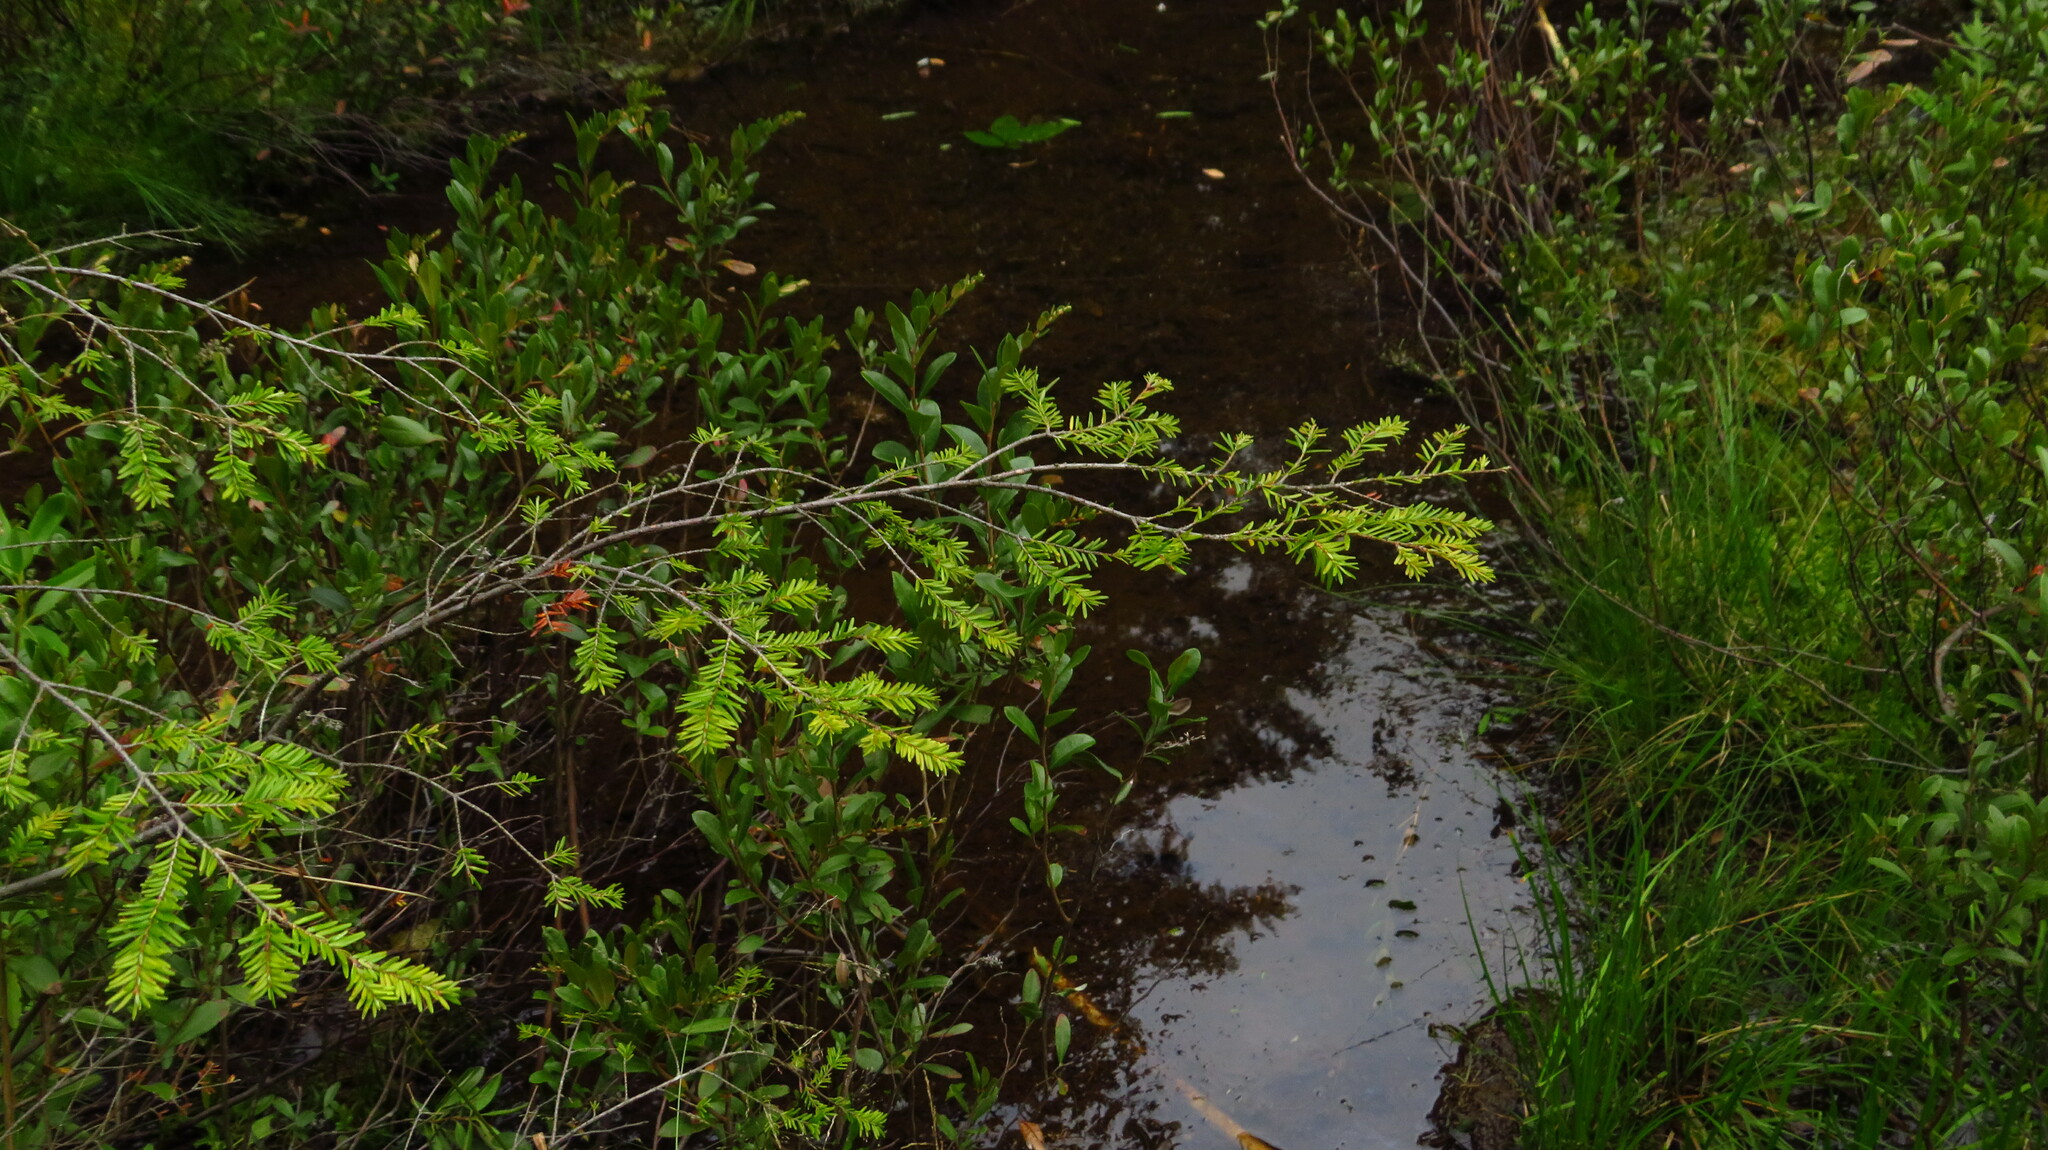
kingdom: Plantae
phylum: Tracheophyta
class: Pinopsida
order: Pinales
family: Pinaceae
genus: Tsuga
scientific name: Tsuga canadensis
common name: Eastern hemlock
